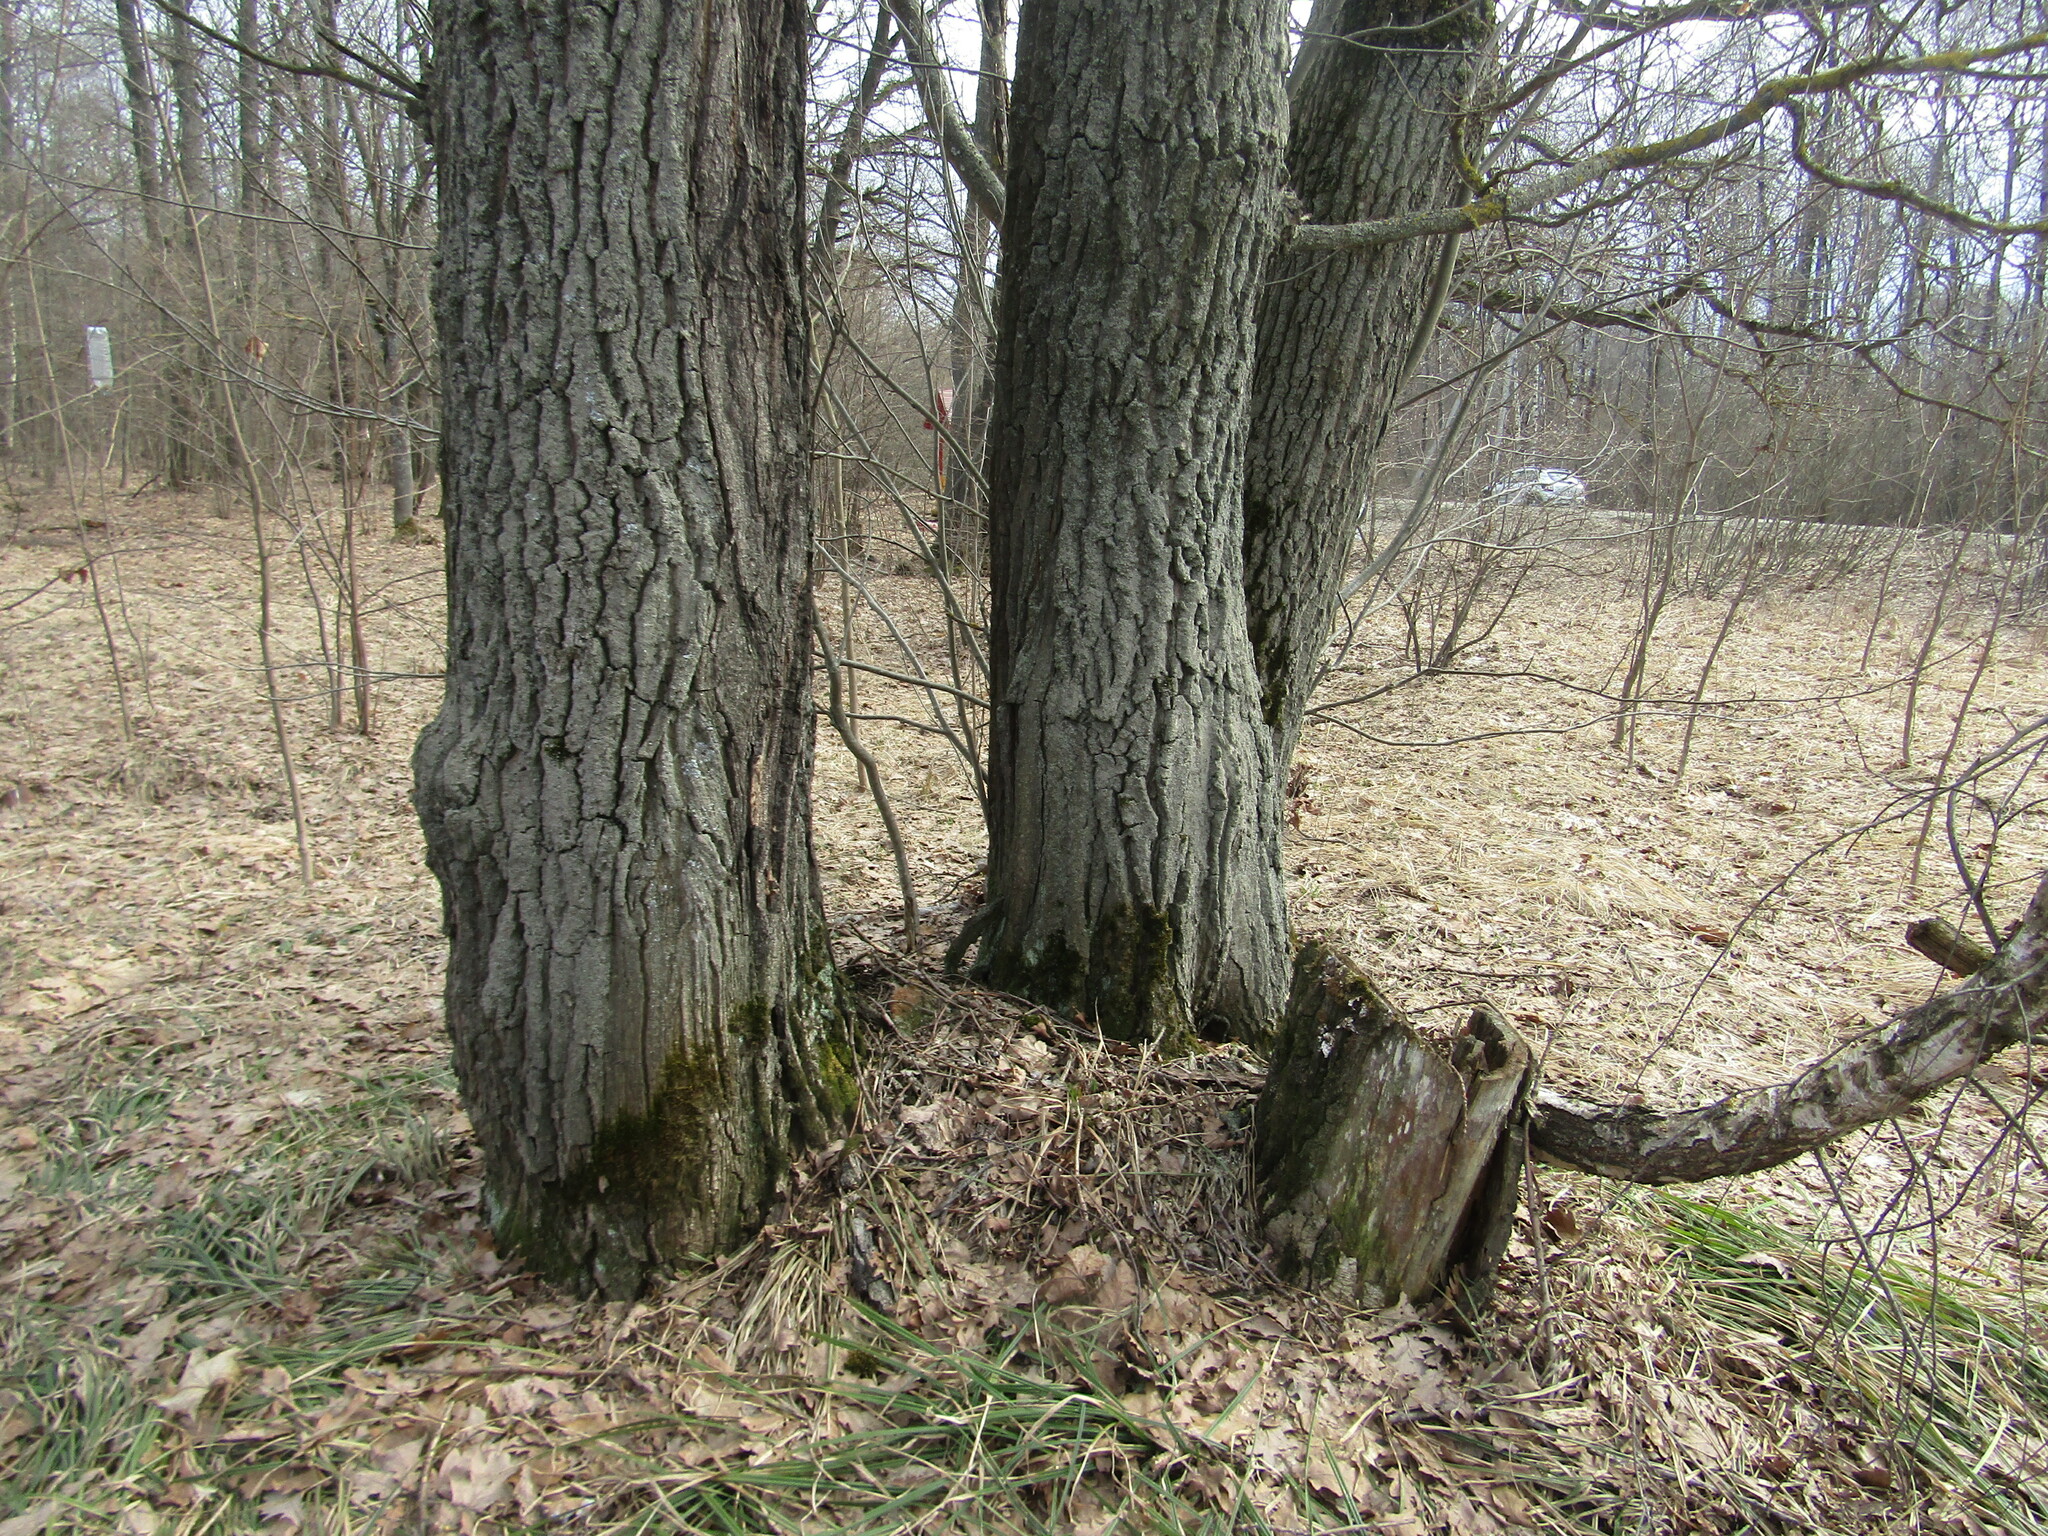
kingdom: Plantae
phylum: Tracheophyta
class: Magnoliopsida
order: Fagales
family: Fagaceae
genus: Quercus
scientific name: Quercus robur
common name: Pedunculate oak
